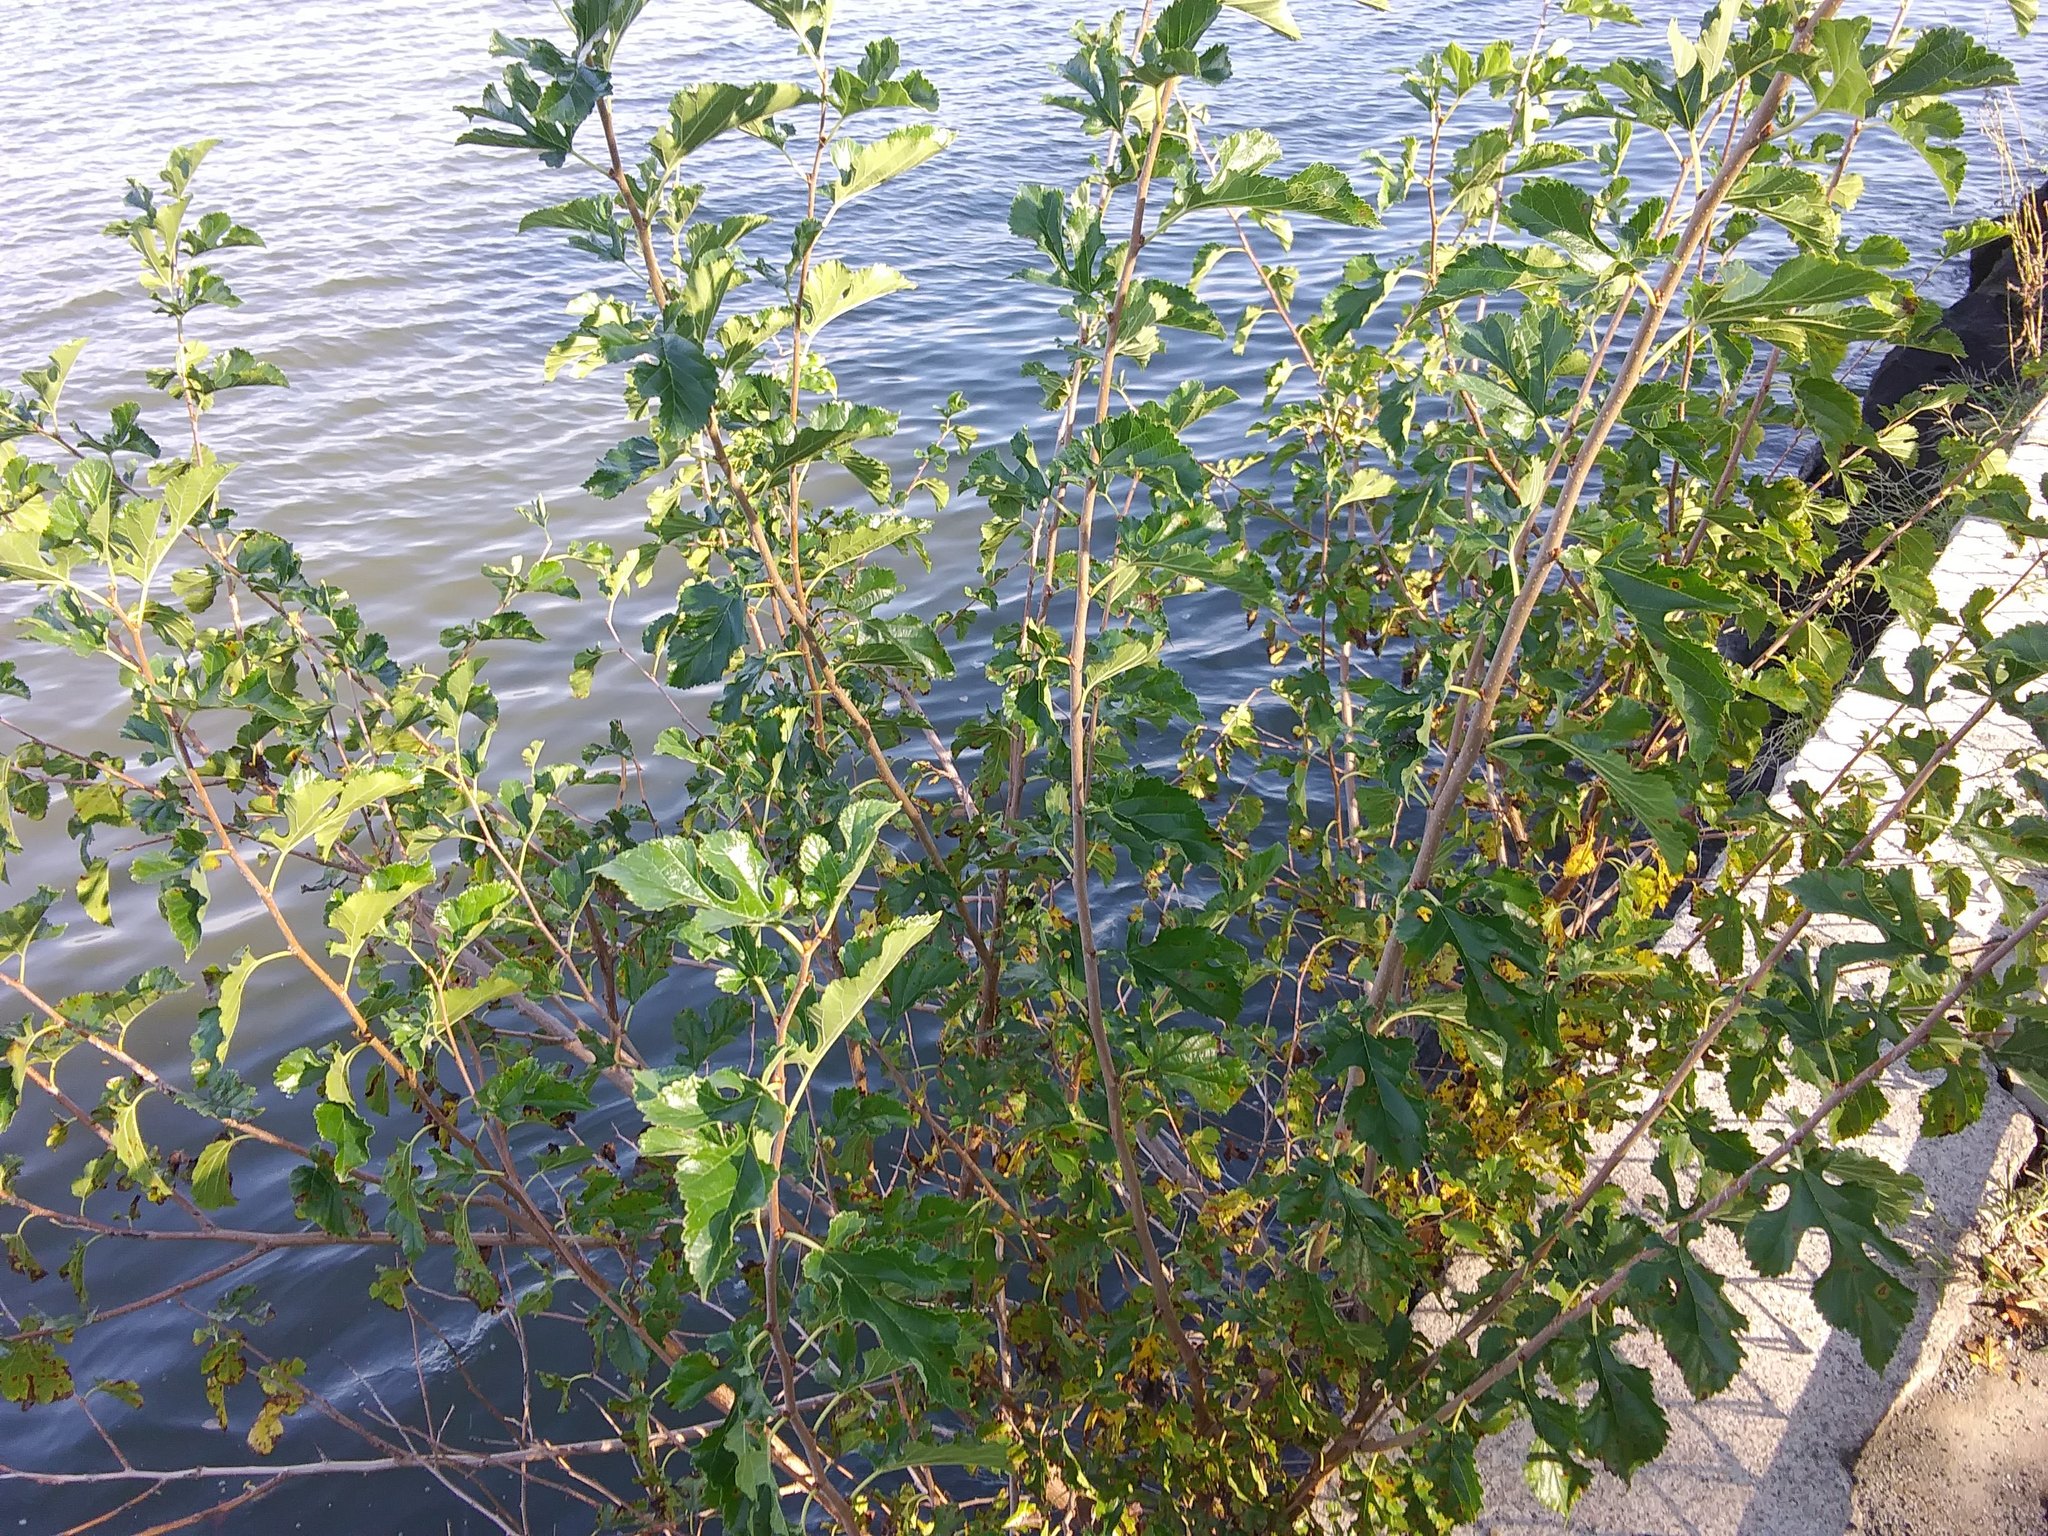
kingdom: Plantae
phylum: Tracheophyta
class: Magnoliopsida
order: Rosales
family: Moraceae
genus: Morus
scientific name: Morus alba
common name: White mulberry
